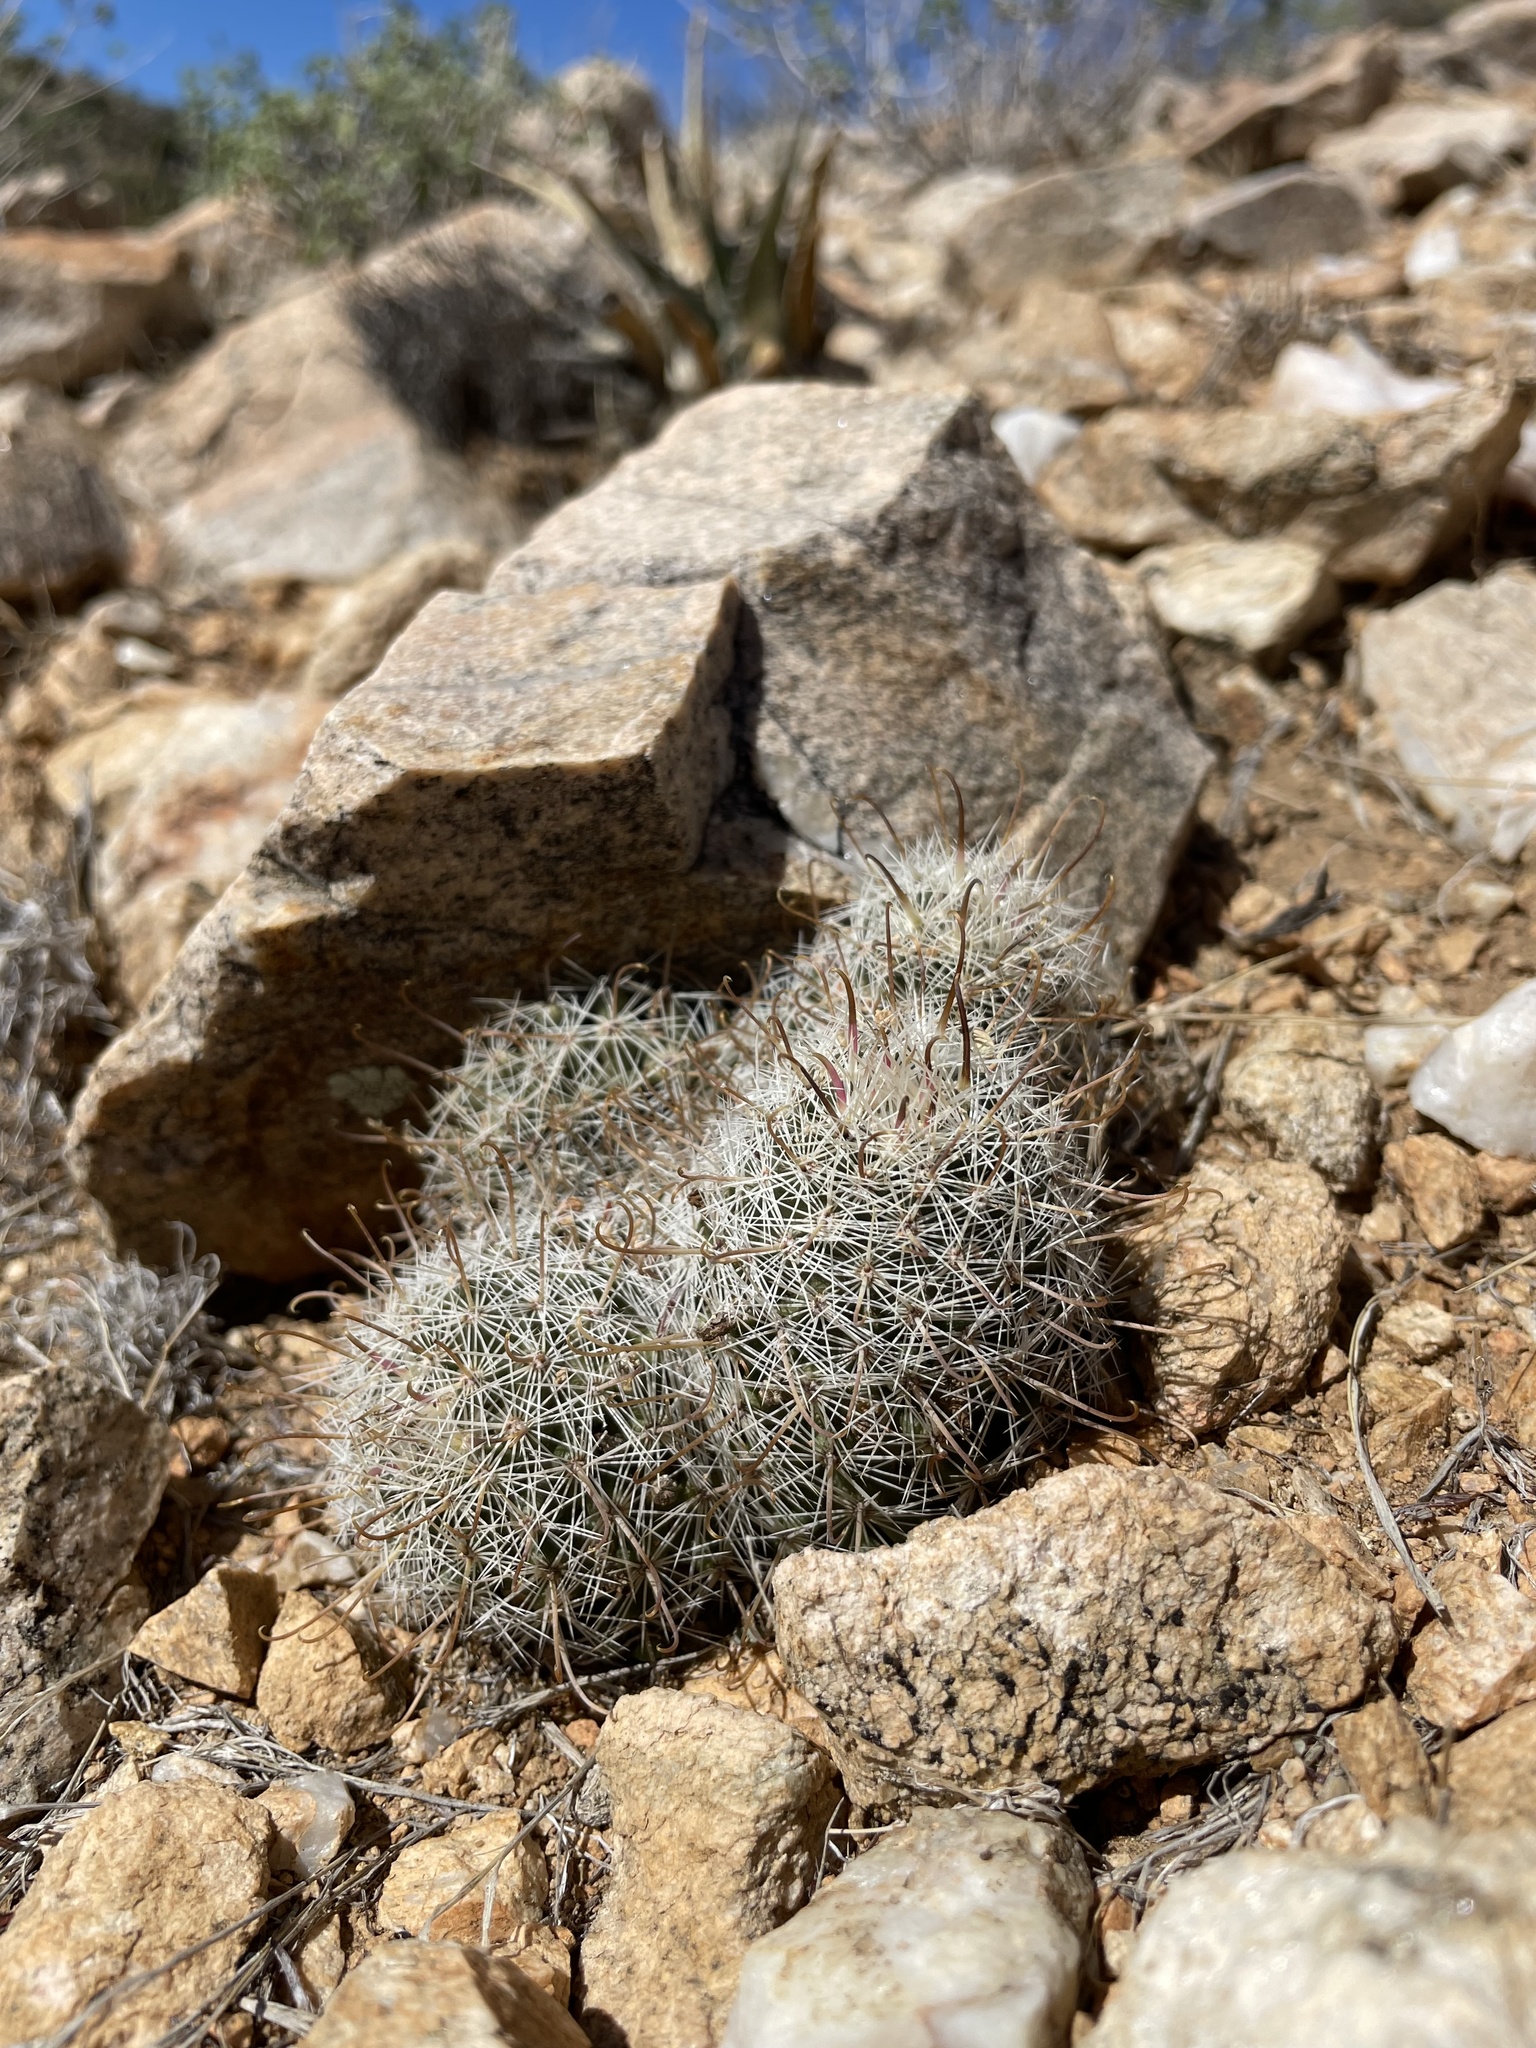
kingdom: Plantae
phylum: Tracheophyta
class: Magnoliopsida
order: Caryophyllales
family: Cactaceae
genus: Cochemiea
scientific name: Cochemiea grahamii
